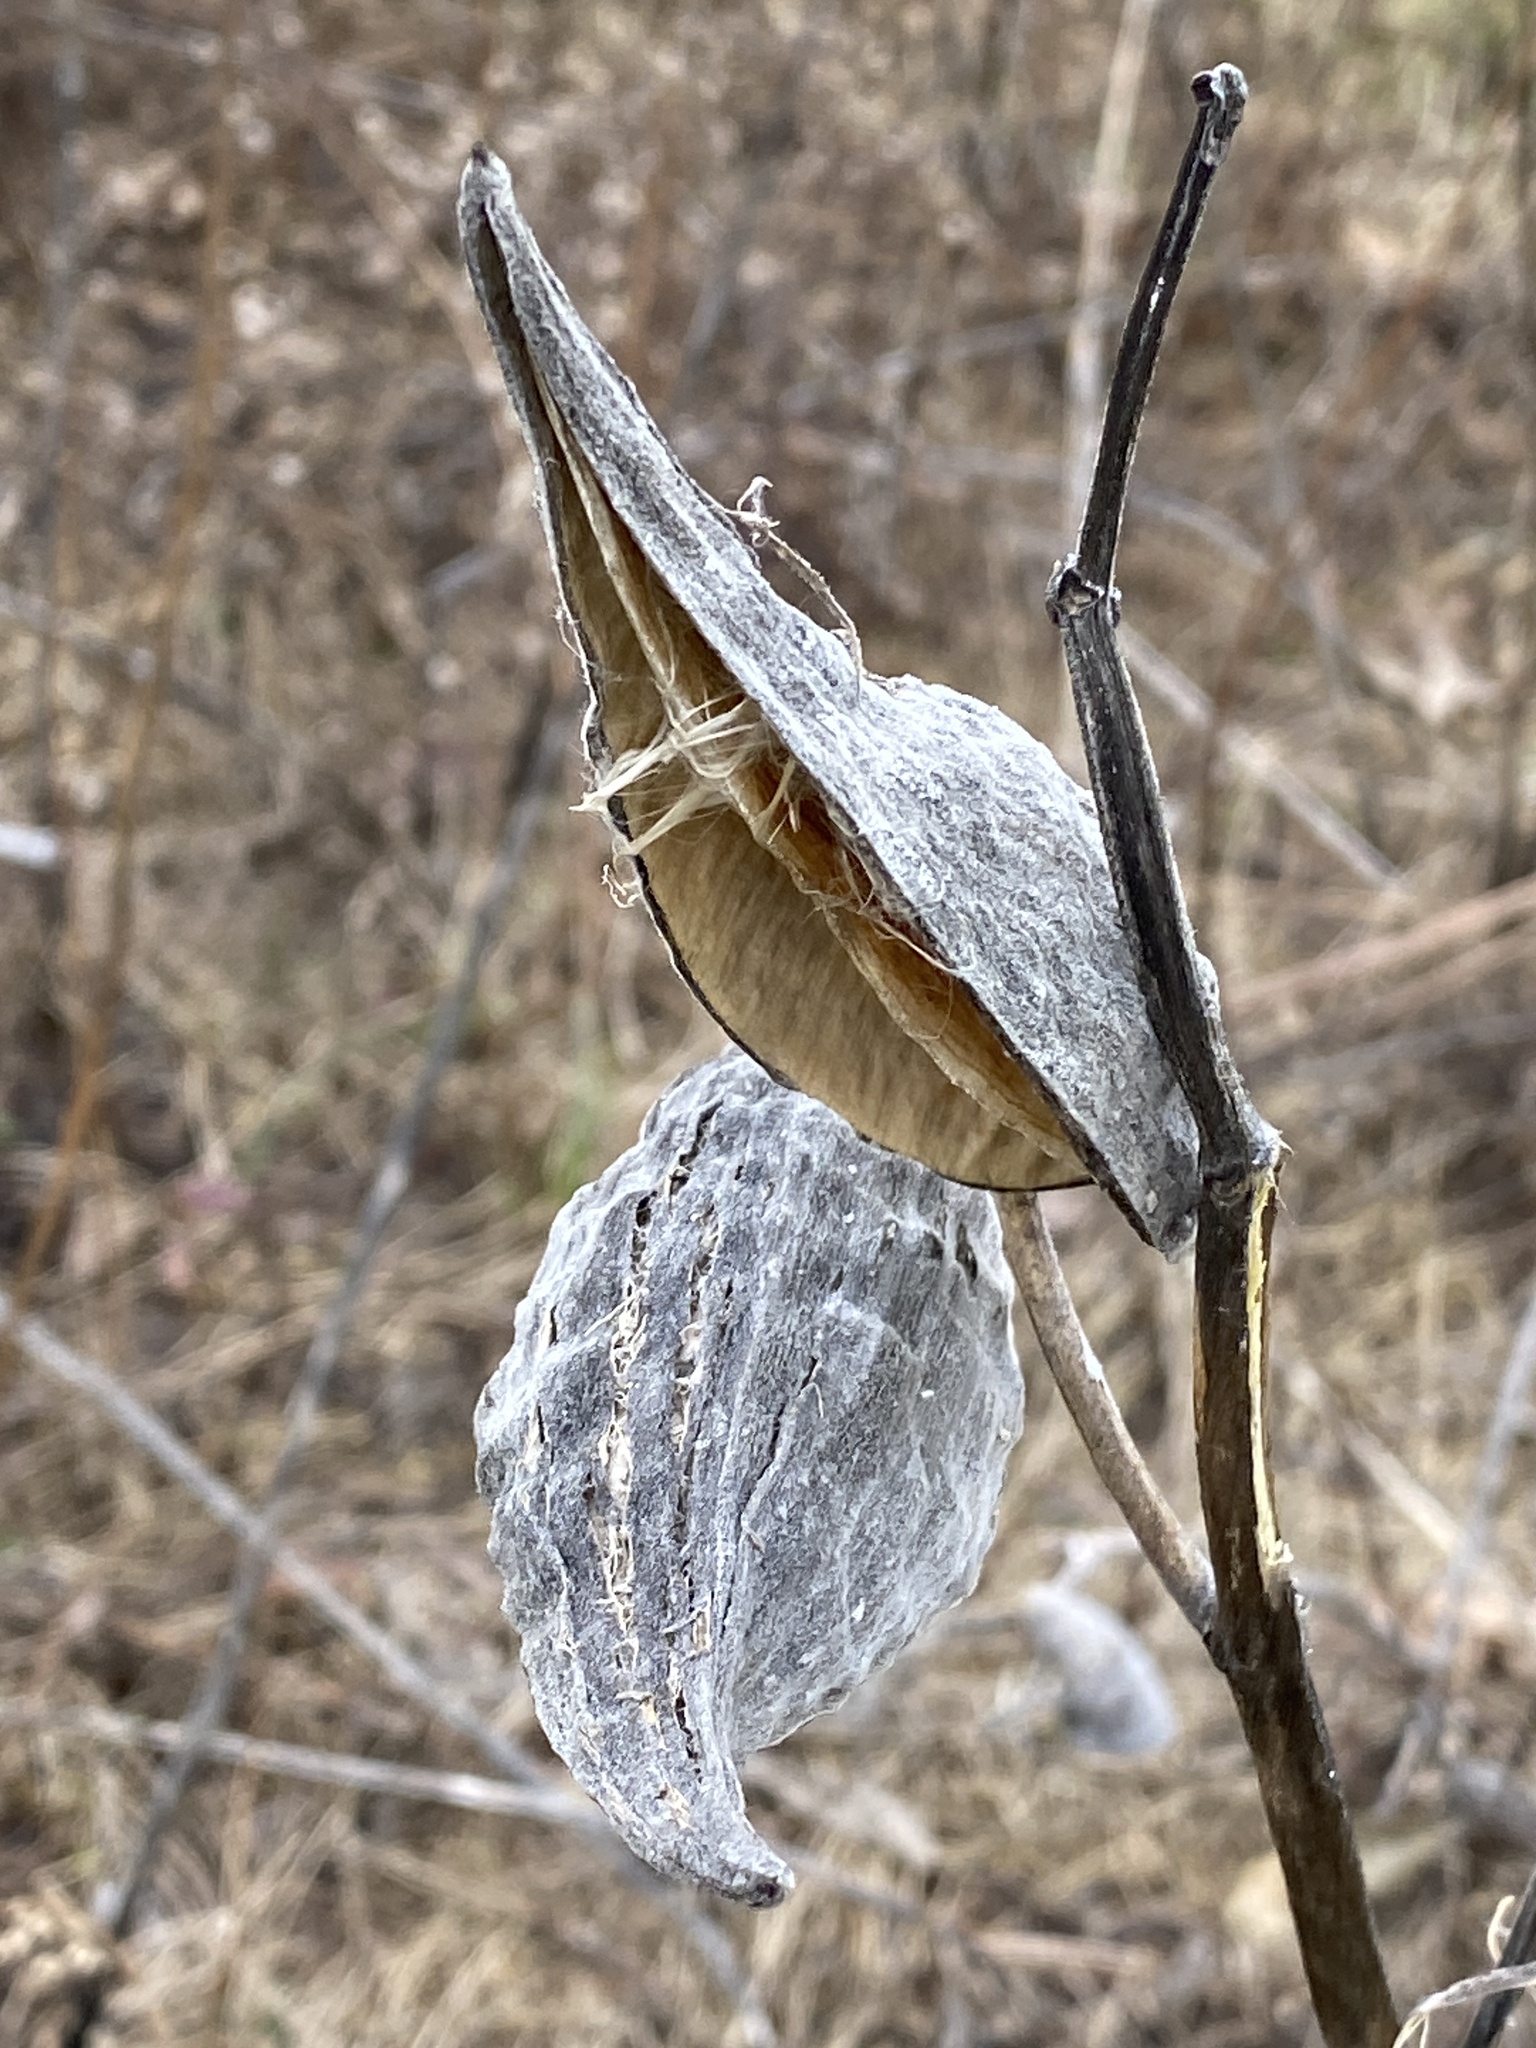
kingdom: Plantae
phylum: Tracheophyta
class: Magnoliopsida
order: Gentianales
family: Apocynaceae
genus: Asclepias
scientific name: Asclepias syriaca
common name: Common milkweed
